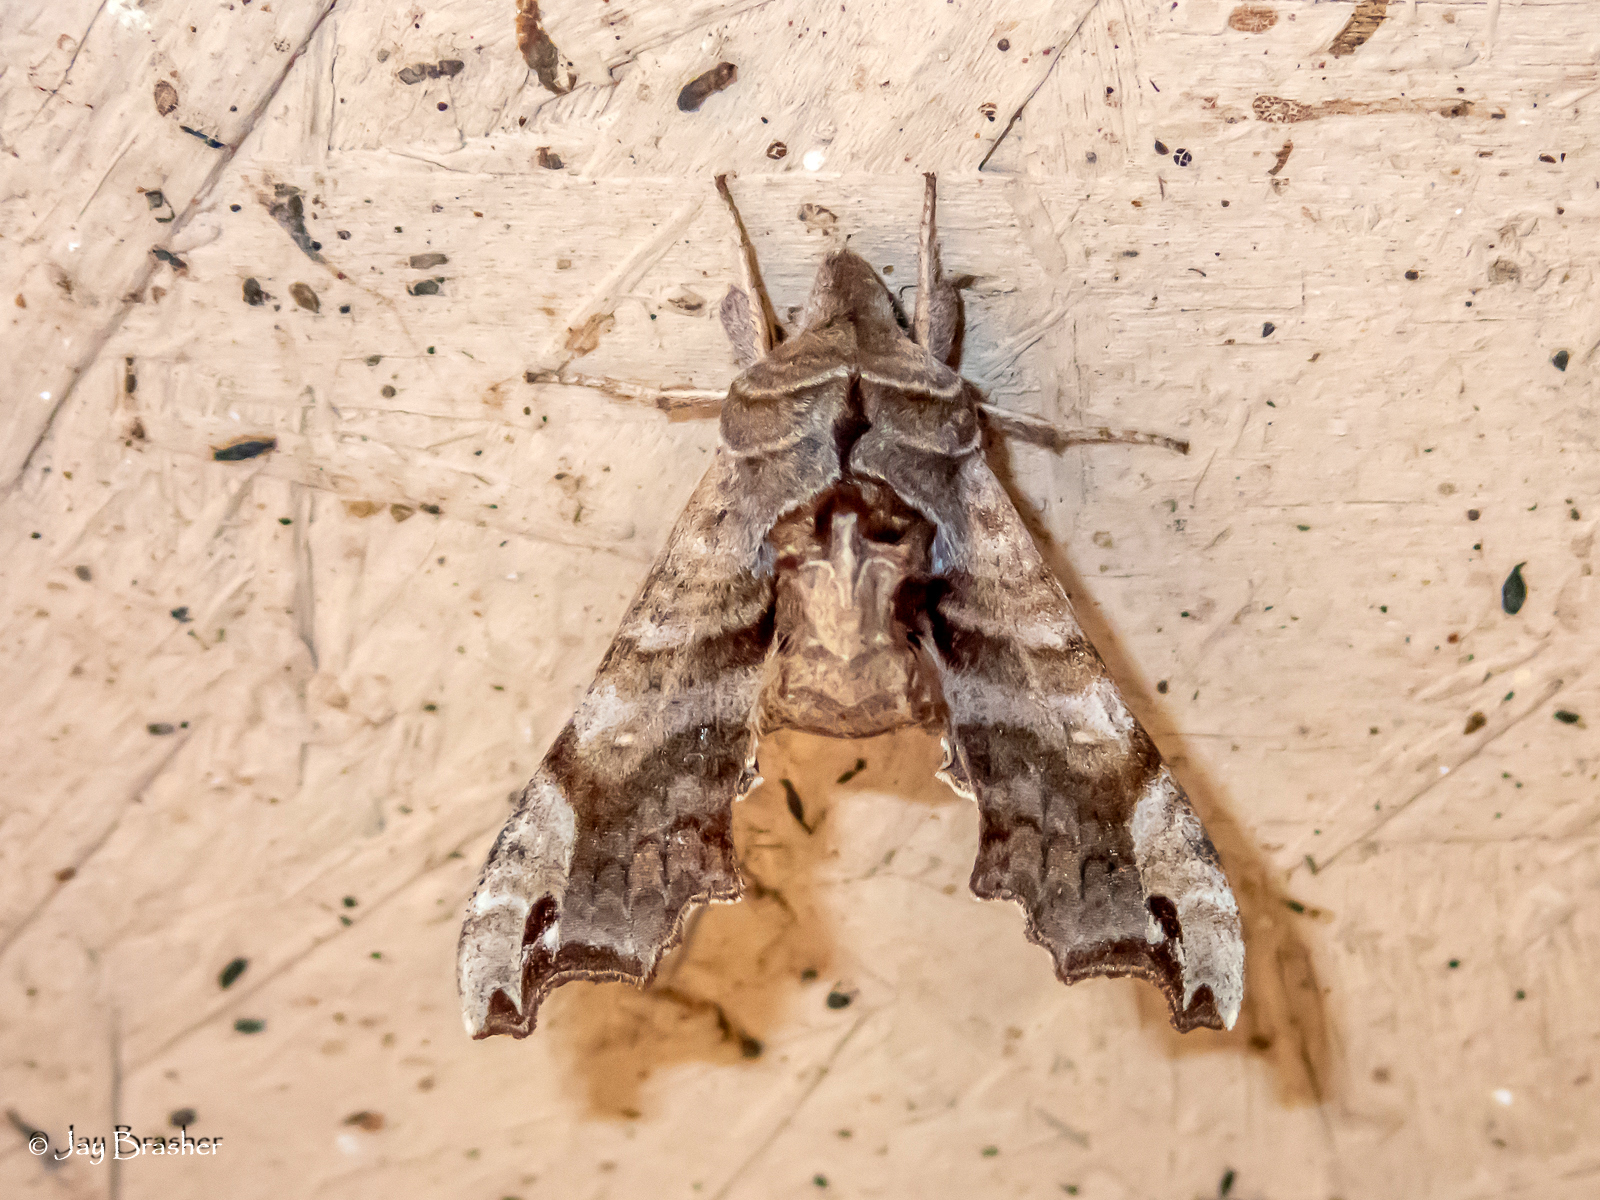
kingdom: Animalia
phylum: Arthropoda
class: Insecta
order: Lepidoptera
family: Sphingidae
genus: Deidamia
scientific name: Deidamia inscriptum
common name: Lettered sphinx
